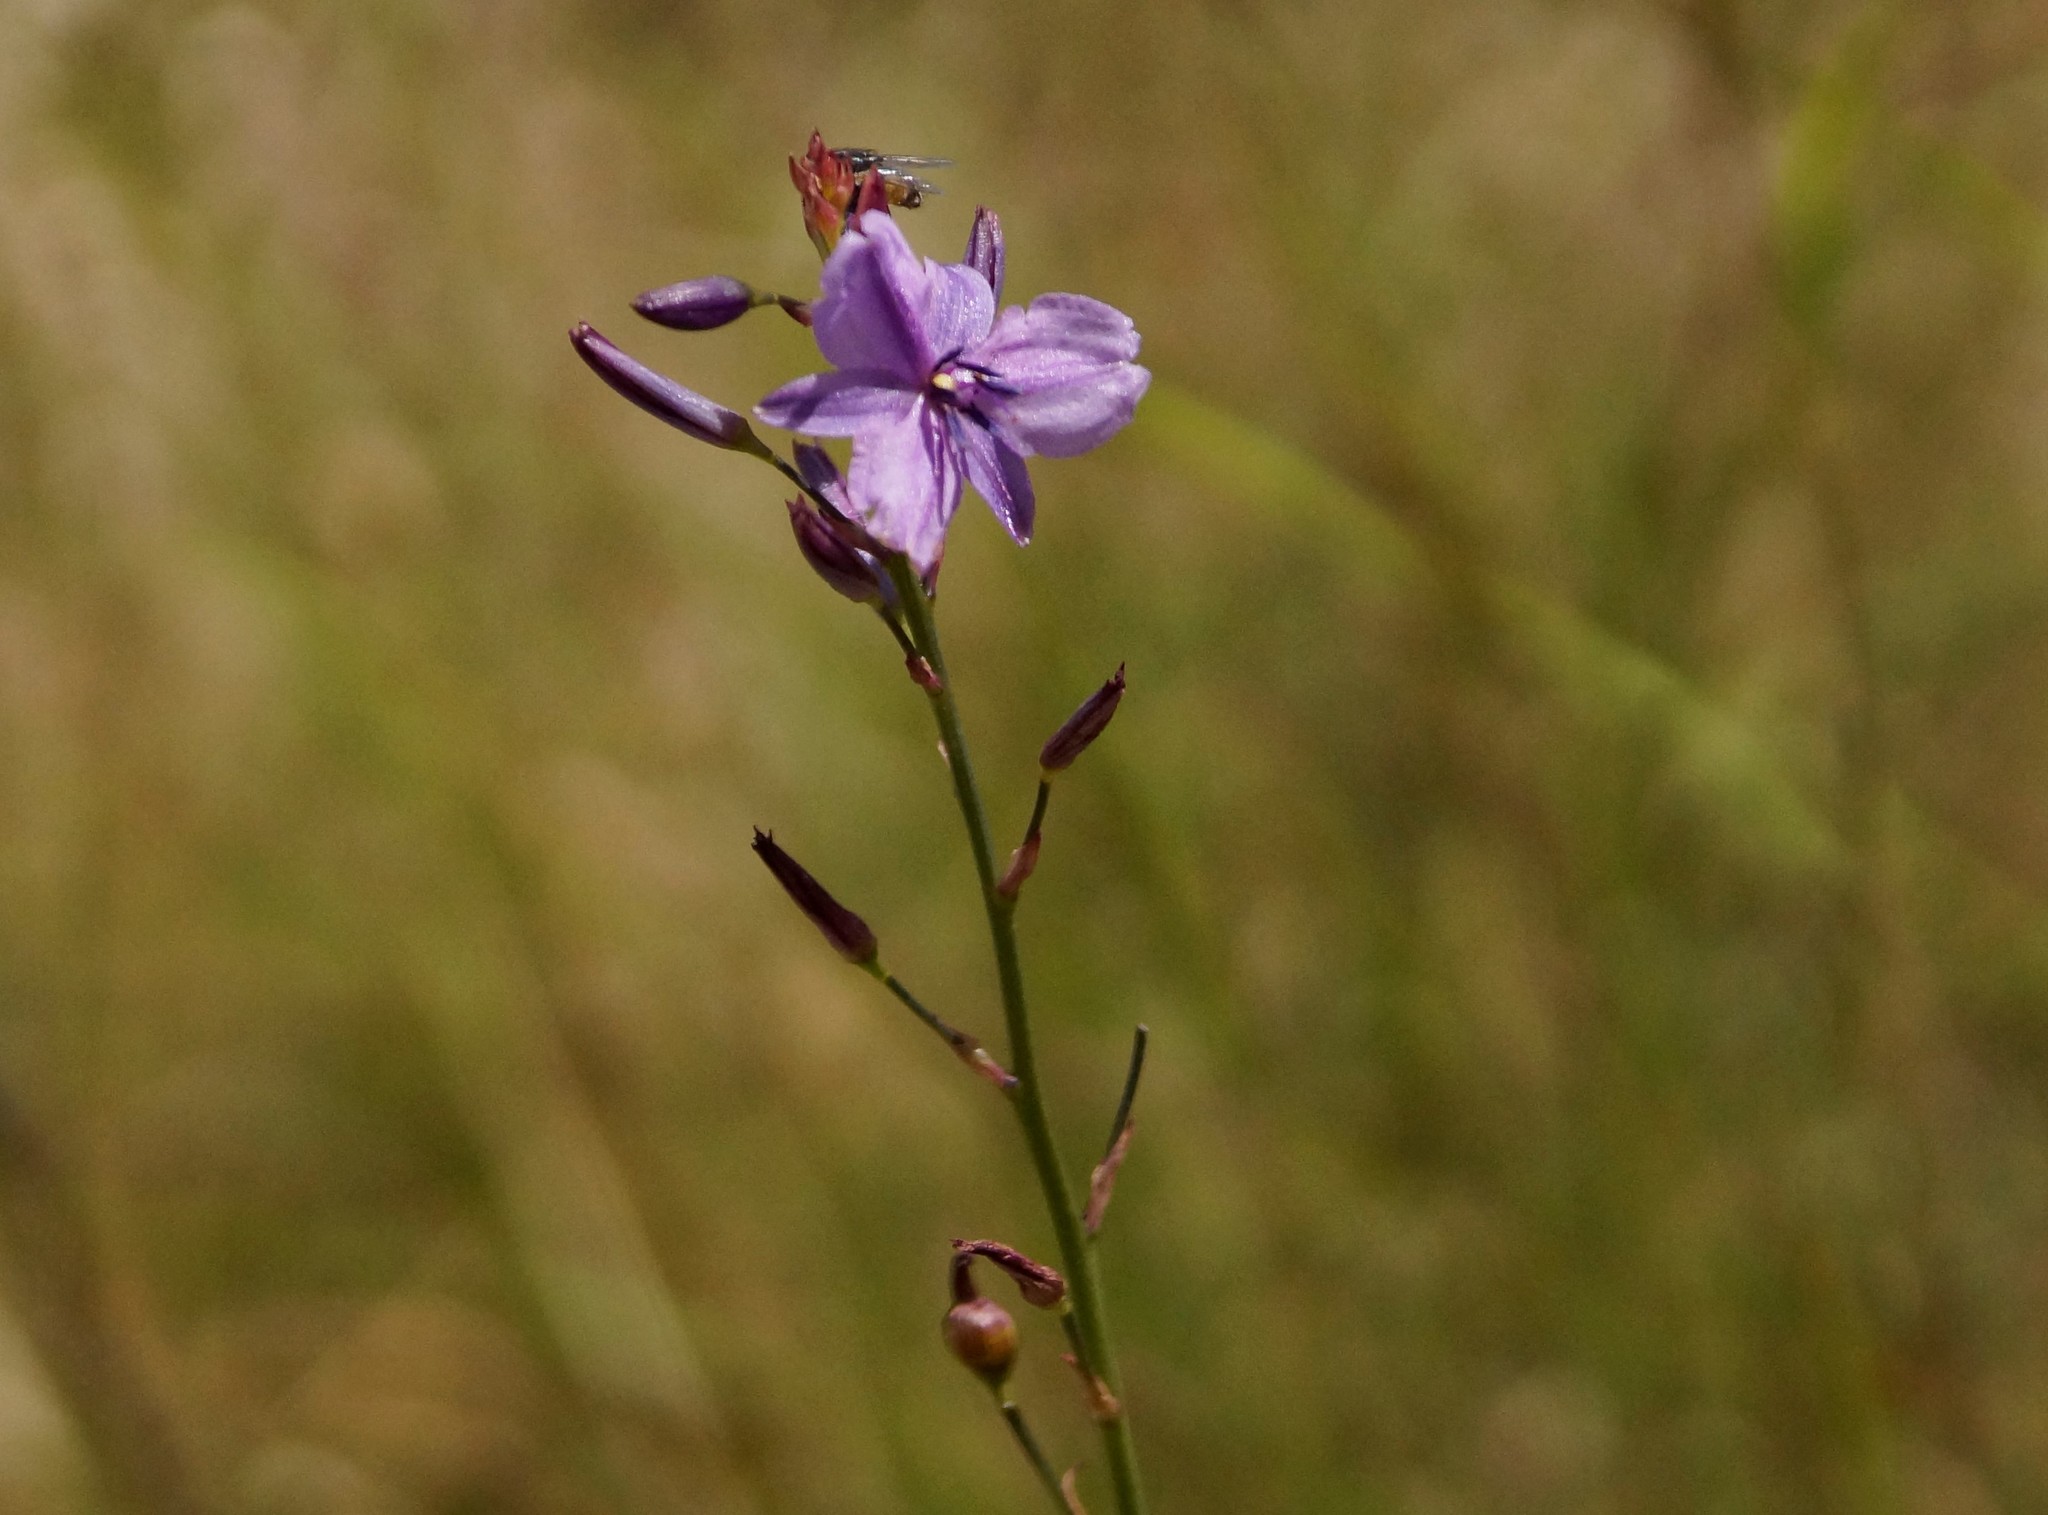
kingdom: Plantae
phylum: Tracheophyta
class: Liliopsida
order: Asparagales
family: Asparagaceae
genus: Arthropodium
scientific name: Arthropodium strictum
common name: Chocolate-lily
